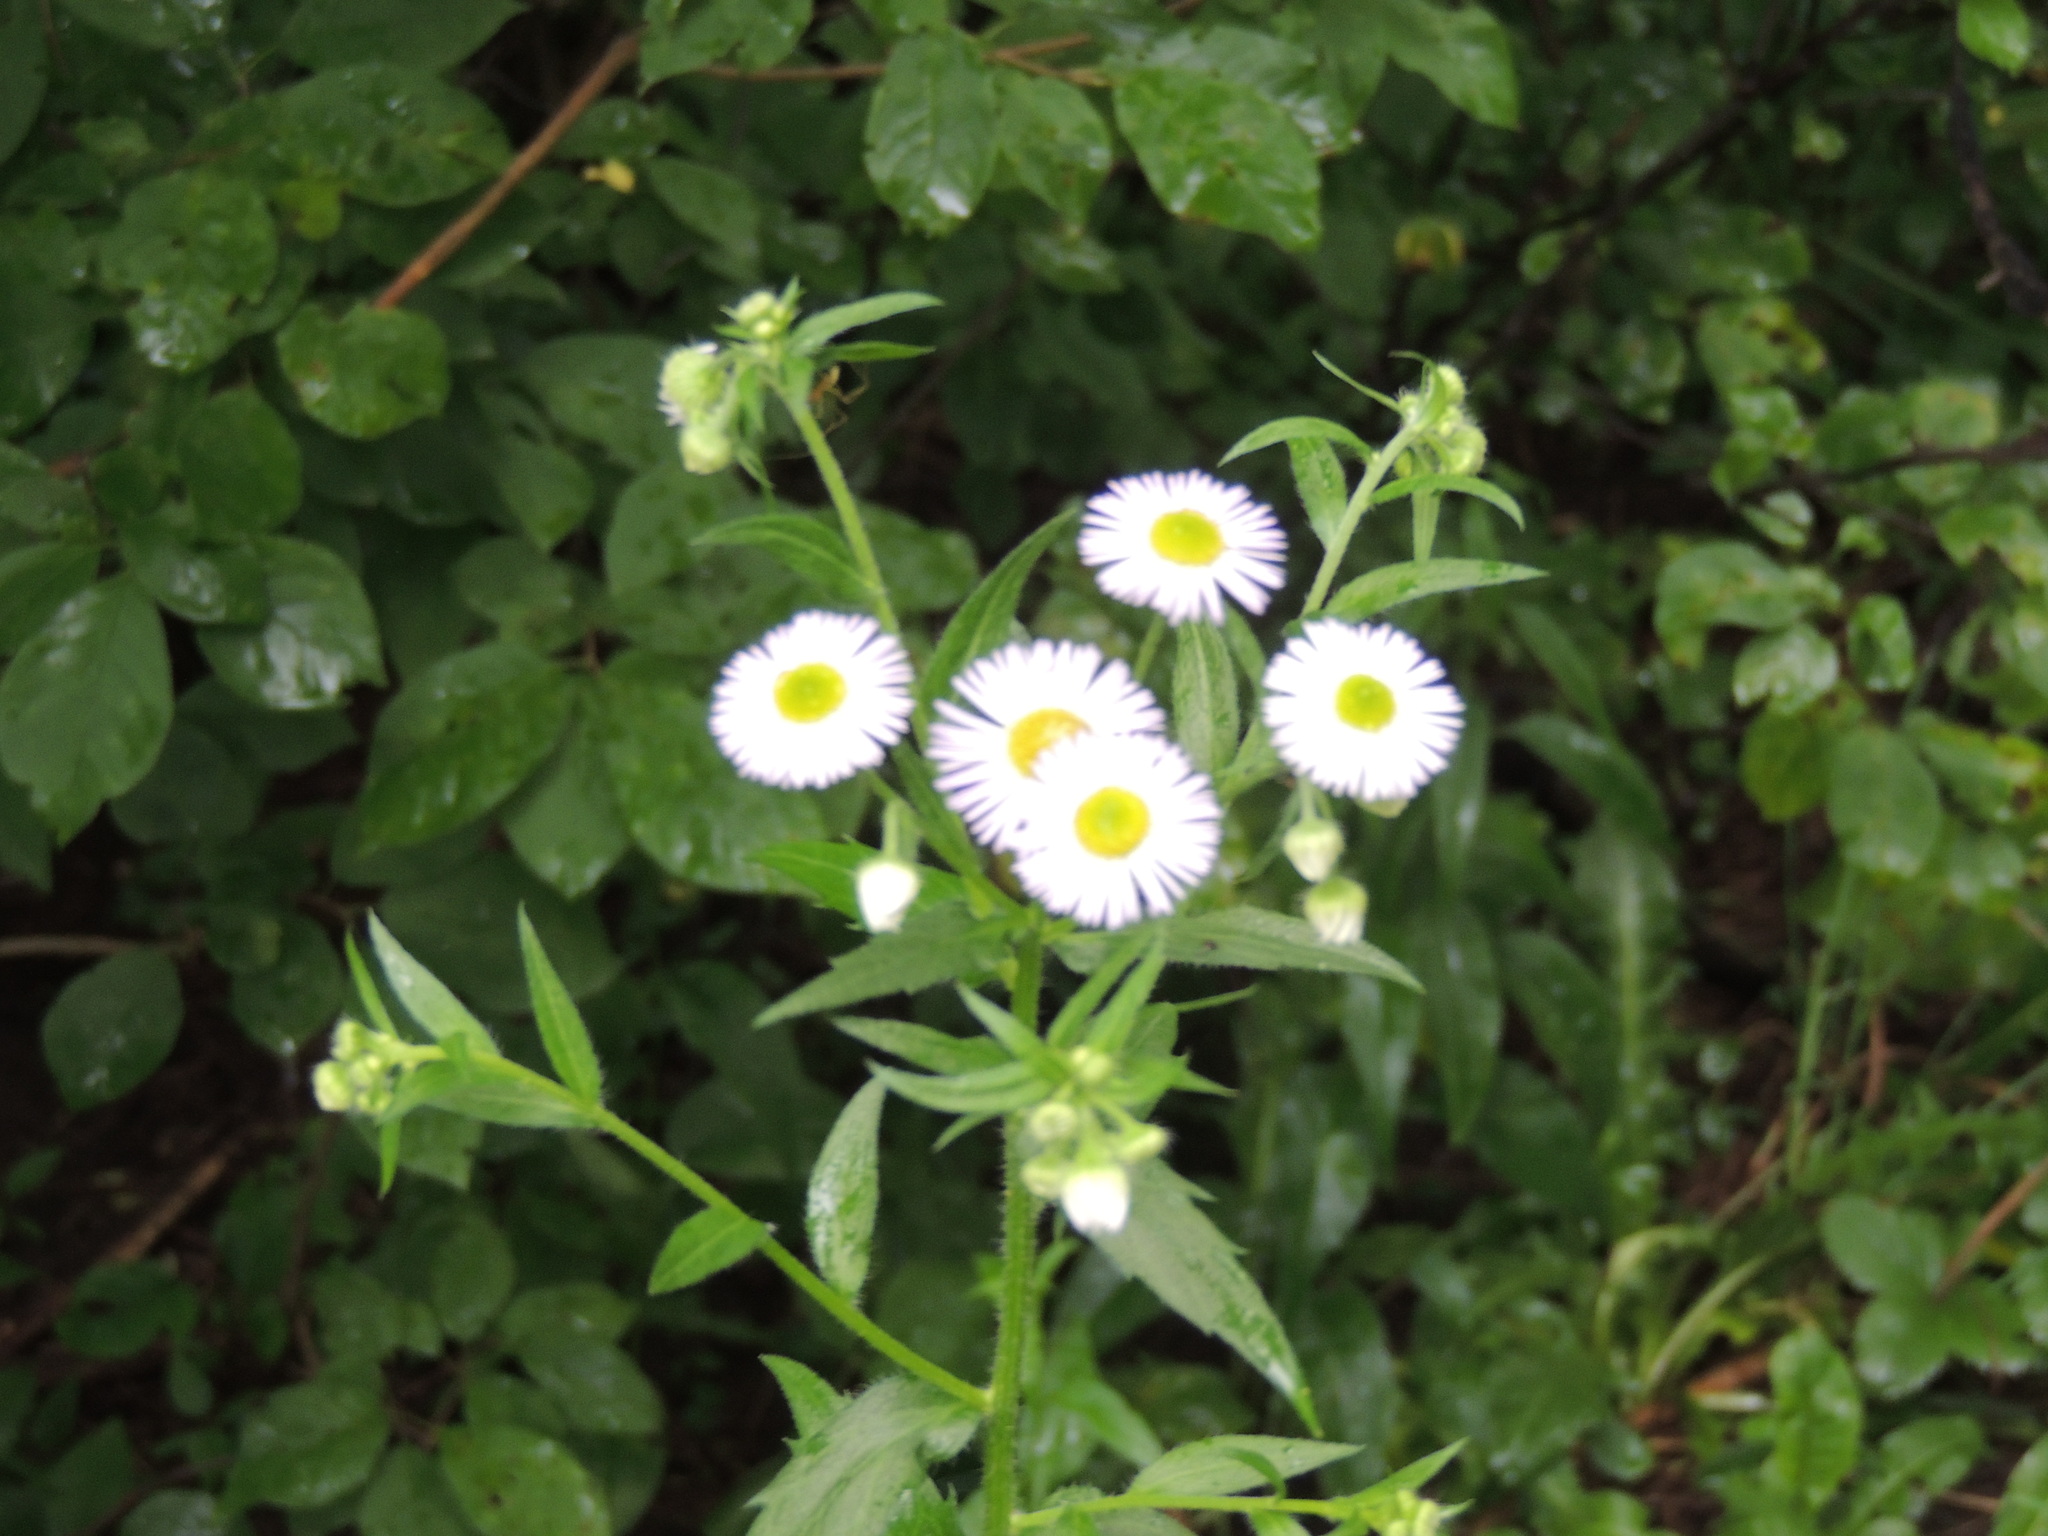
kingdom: Plantae
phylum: Tracheophyta
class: Magnoliopsida
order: Asterales
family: Asteraceae
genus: Erigeron
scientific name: Erigeron annuus
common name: Tall fleabane
